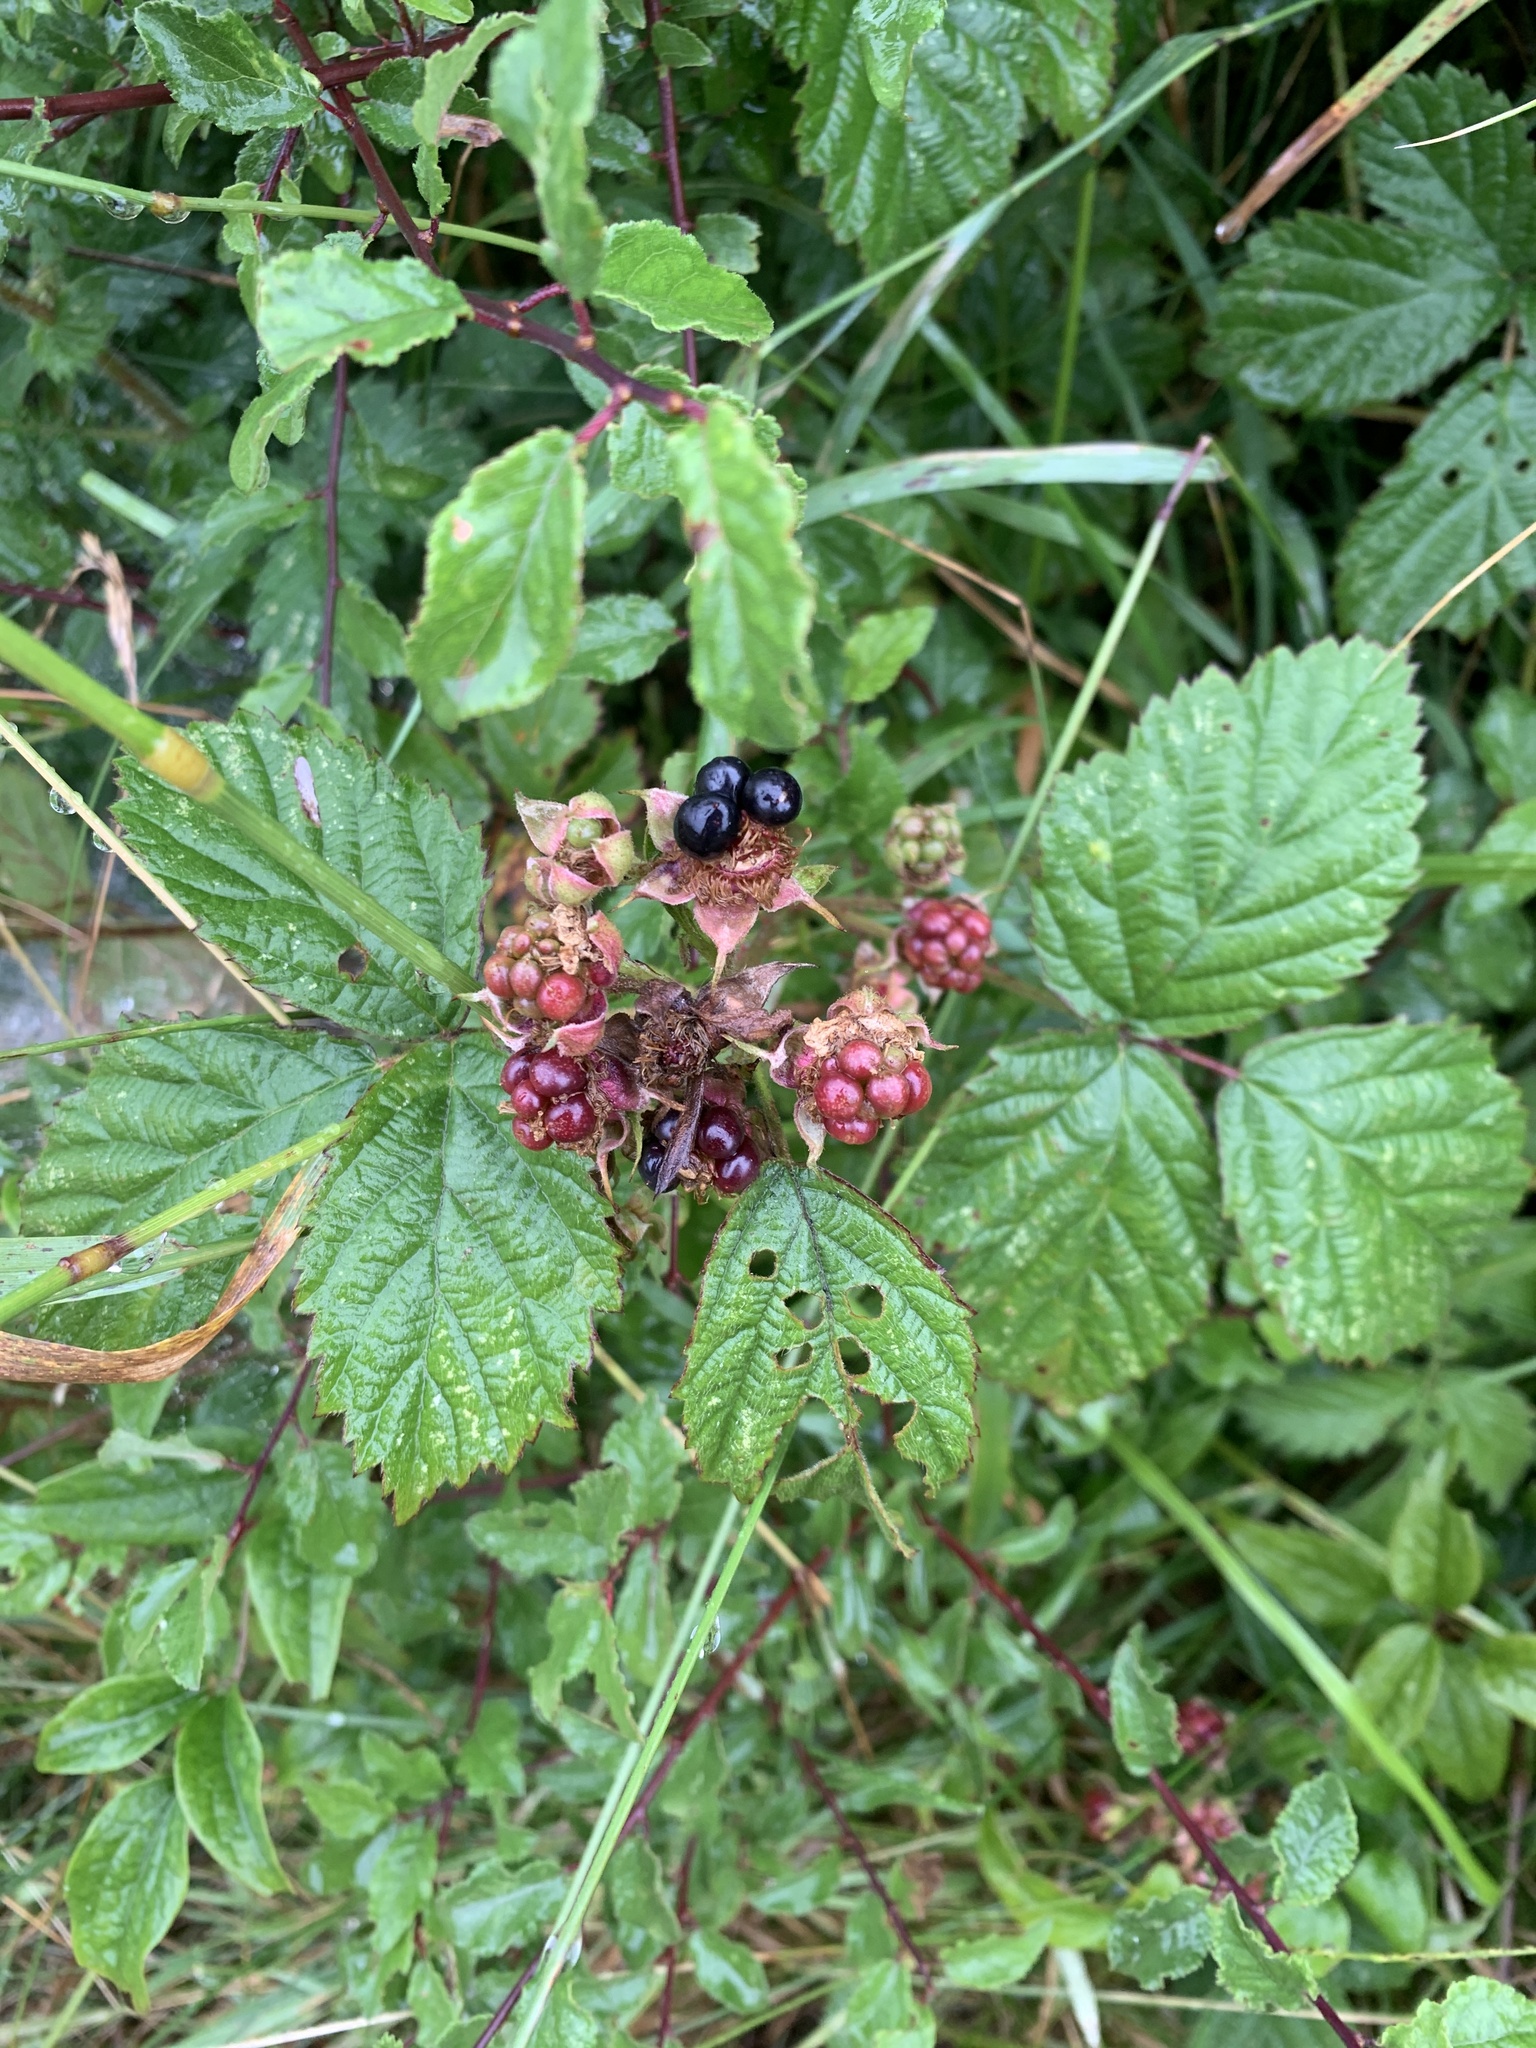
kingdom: Plantae
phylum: Tracheophyta
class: Magnoliopsida
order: Rosales
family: Rosaceae
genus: Rubus
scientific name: Rubus fruticosus
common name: Blackberry, bramble
